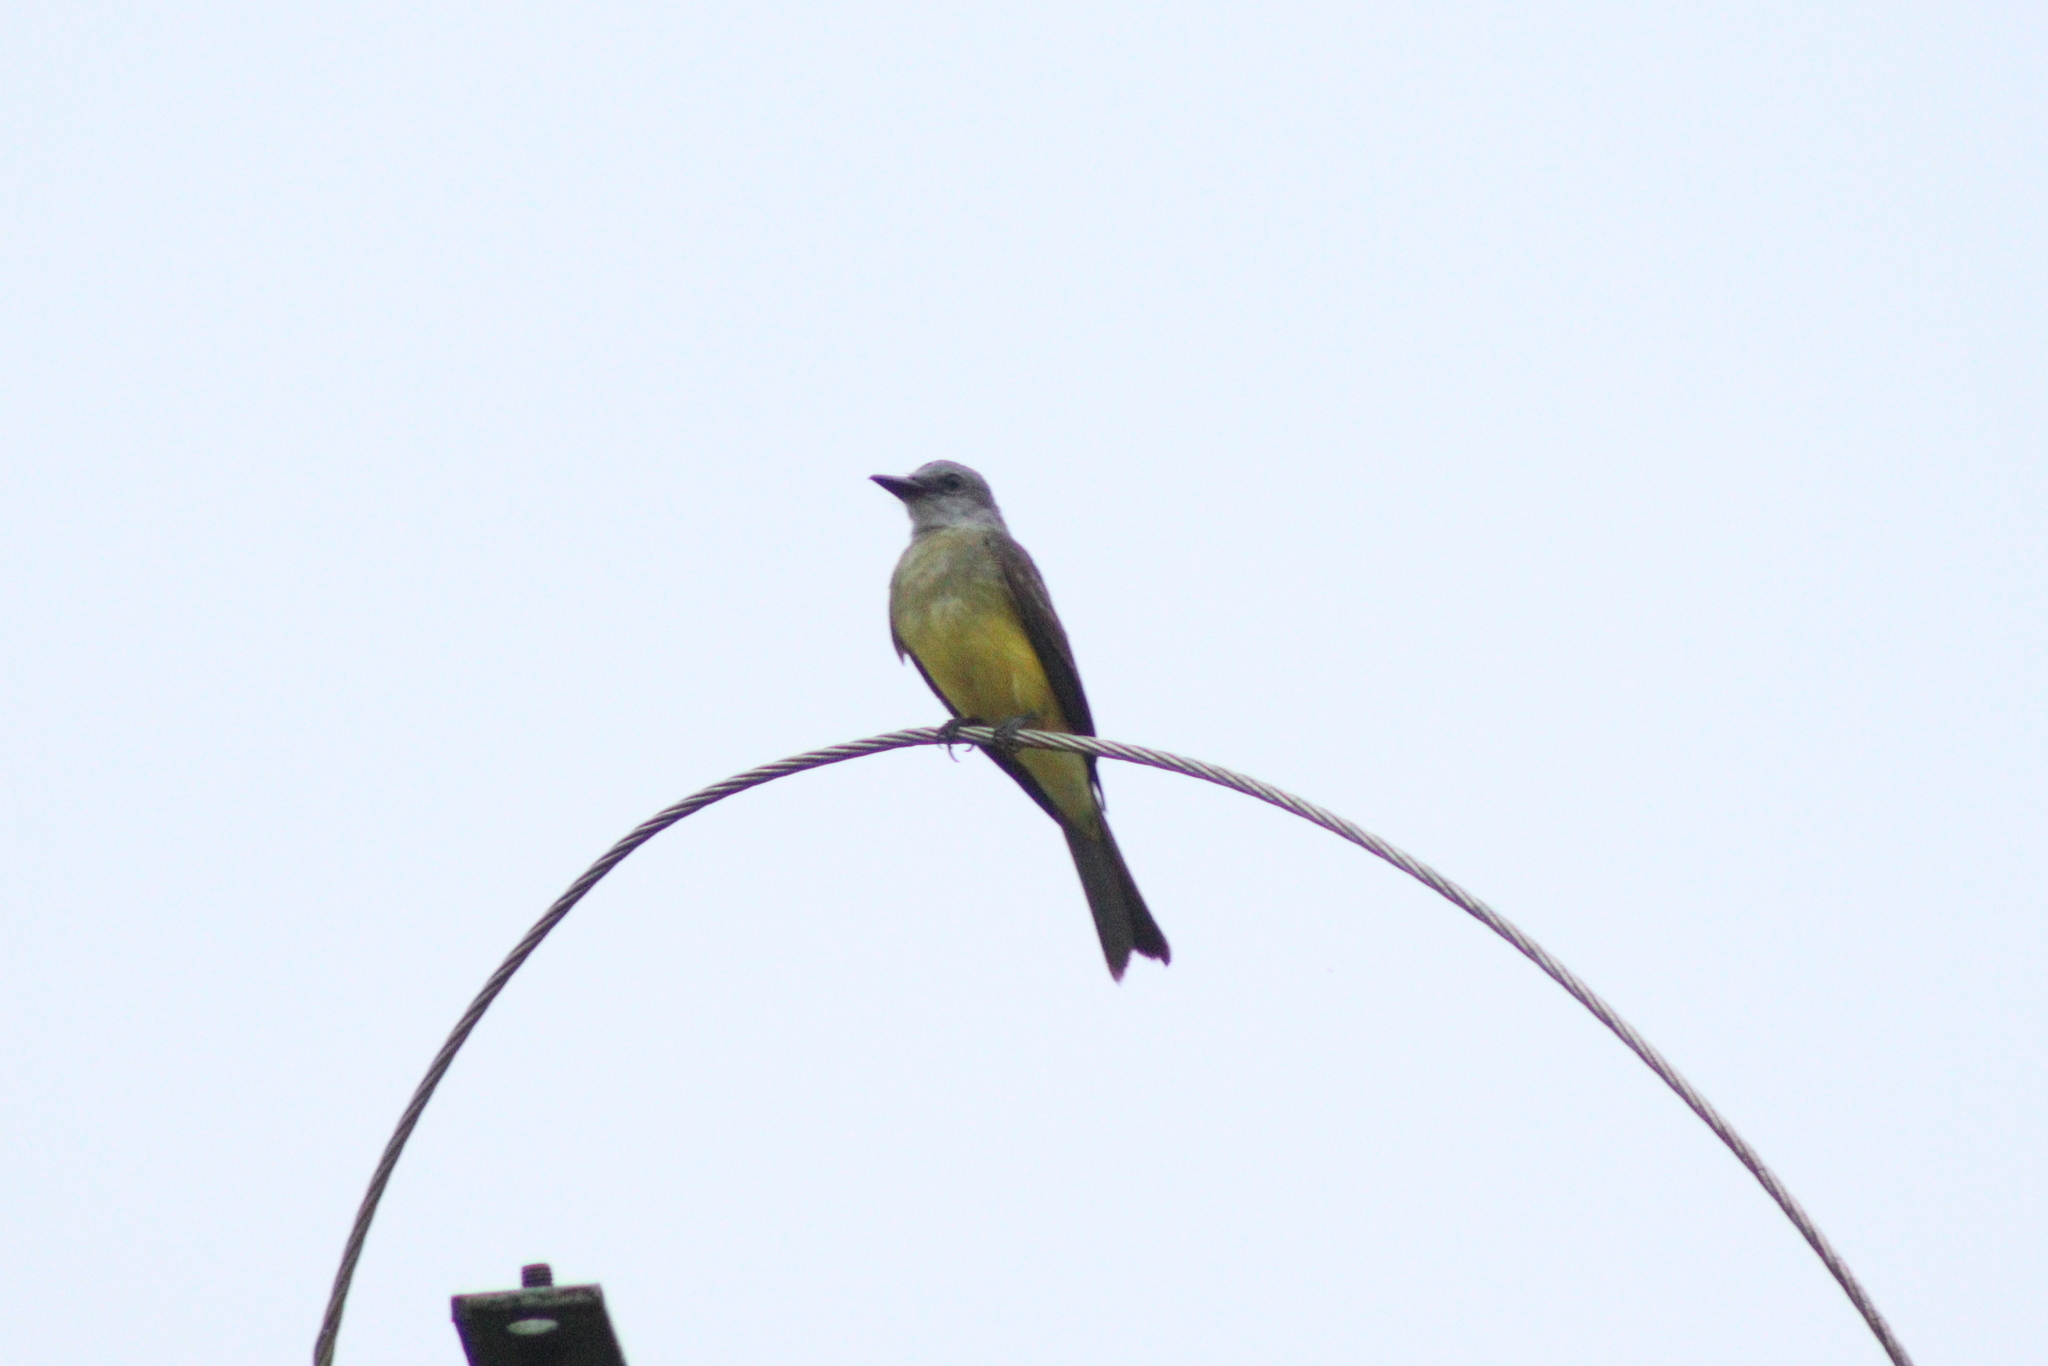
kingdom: Animalia
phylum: Chordata
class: Aves
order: Passeriformes
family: Tyrannidae
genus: Tyrannus
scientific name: Tyrannus melancholicus
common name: Tropical kingbird
